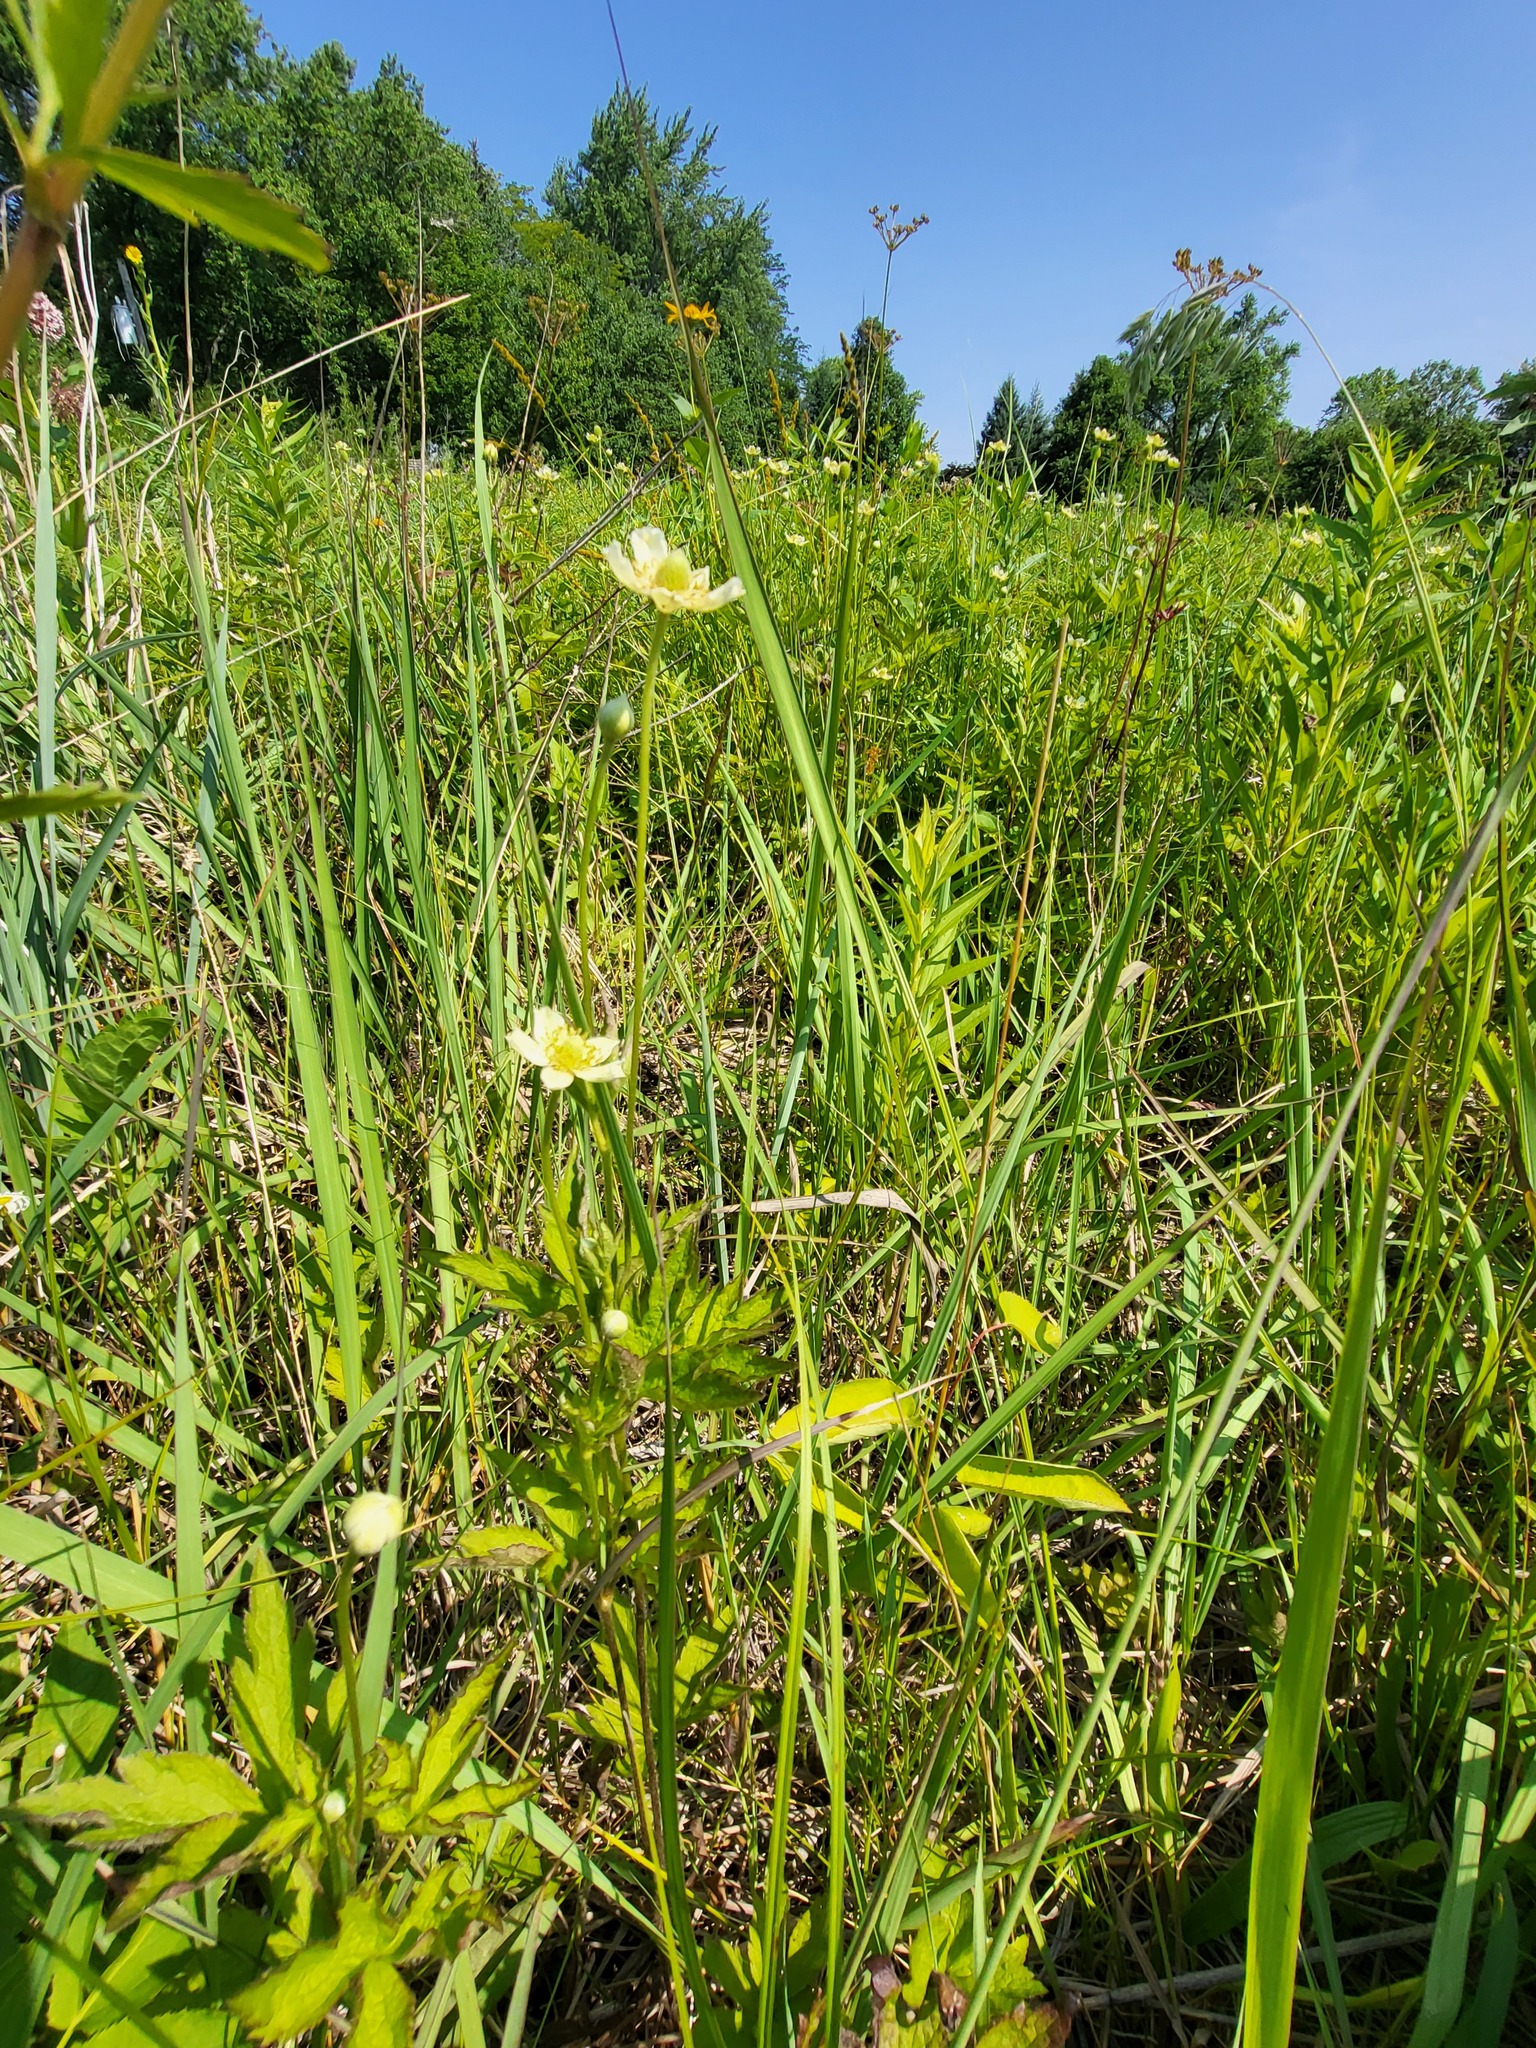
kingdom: Plantae
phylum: Tracheophyta
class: Magnoliopsida
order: Ranunculales
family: Ranunculaceae
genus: Anemone
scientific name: Anemone virginiana
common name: Tall anemone
